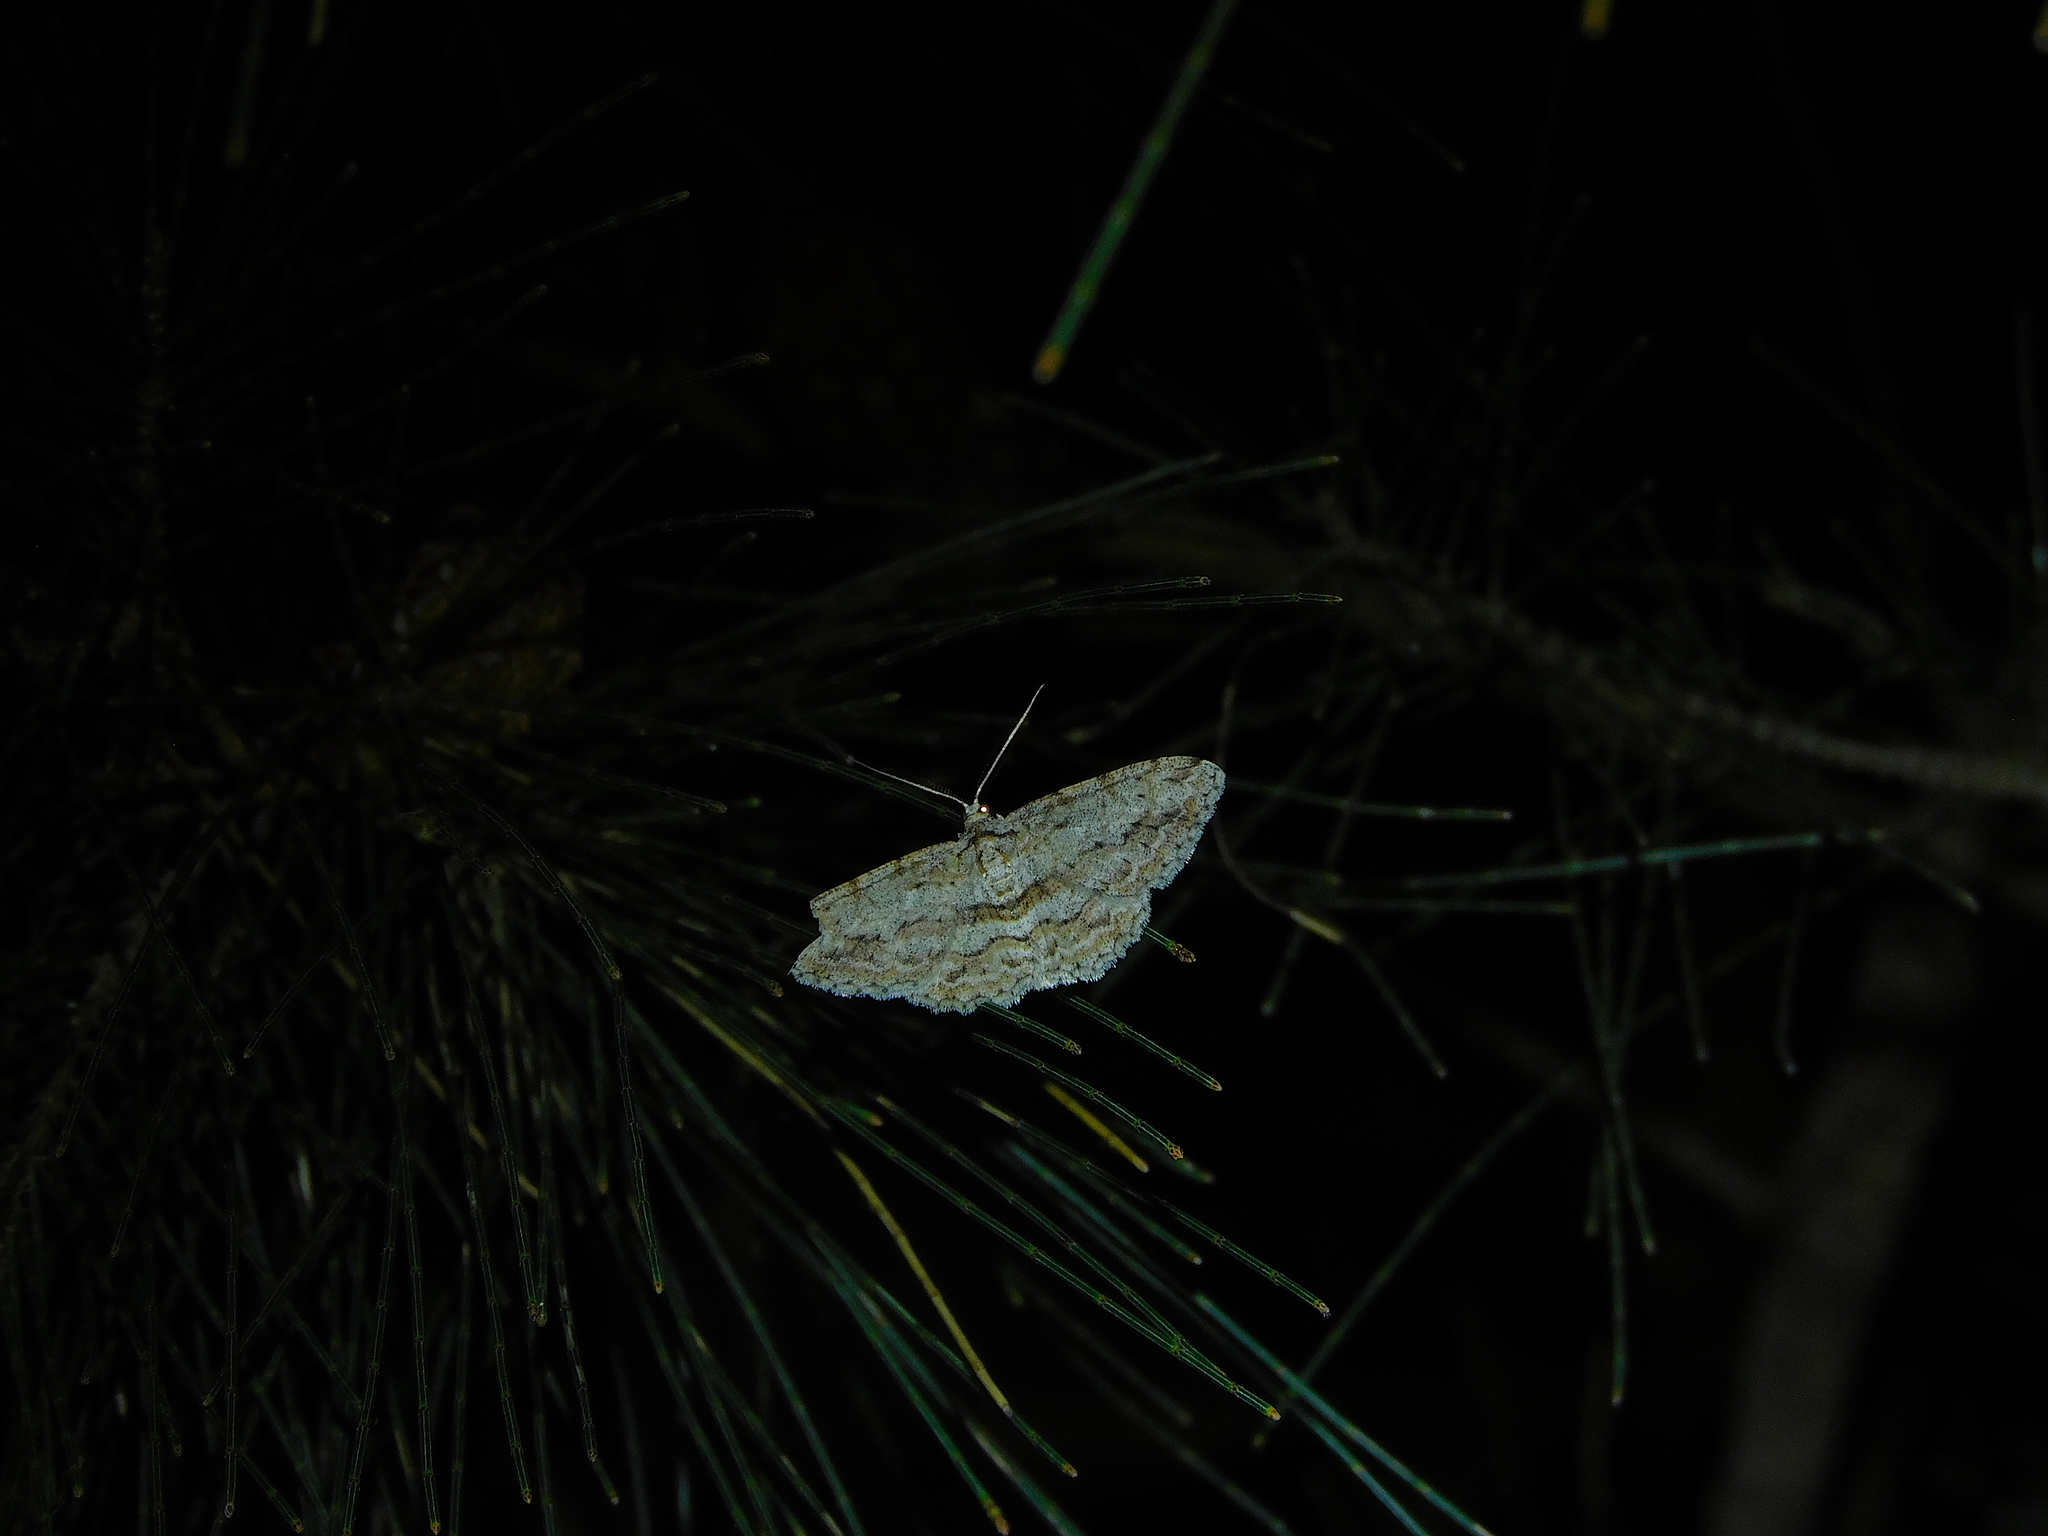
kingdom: Animalia
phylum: Arthropoda
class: Insecta
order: Lepidoptera
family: Geometridae
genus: Didymoctenia
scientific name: Didymoctenia exsuperata
